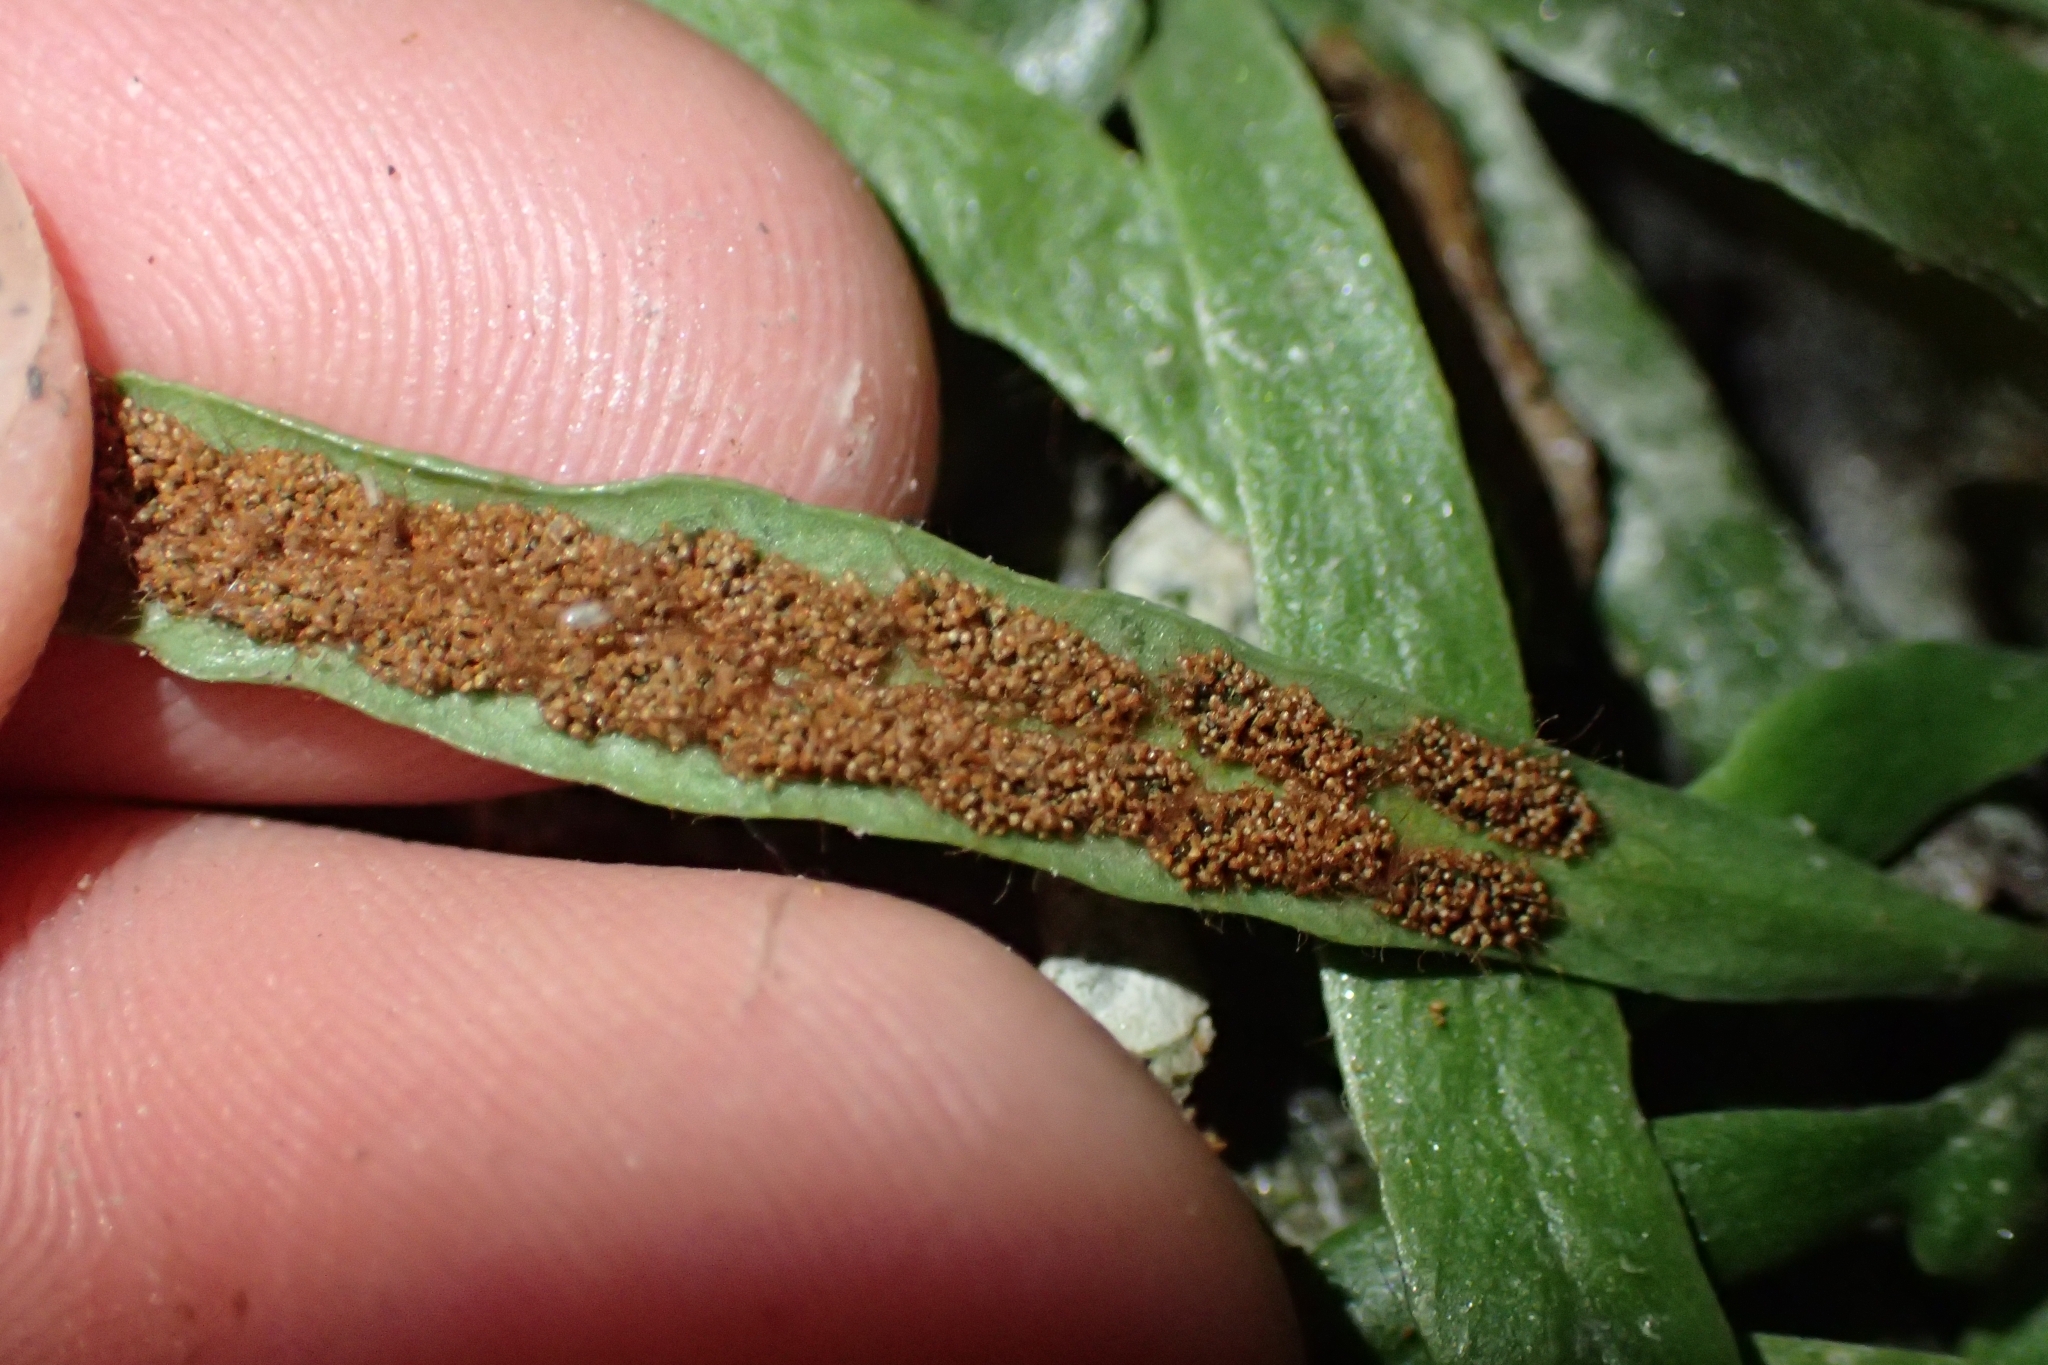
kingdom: Plantae
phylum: Tracheophyta
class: Polypodiopsida
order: Polypodiales
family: Polypodiaceae
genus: Notogrammitis
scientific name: Notogrammitis patagonica
